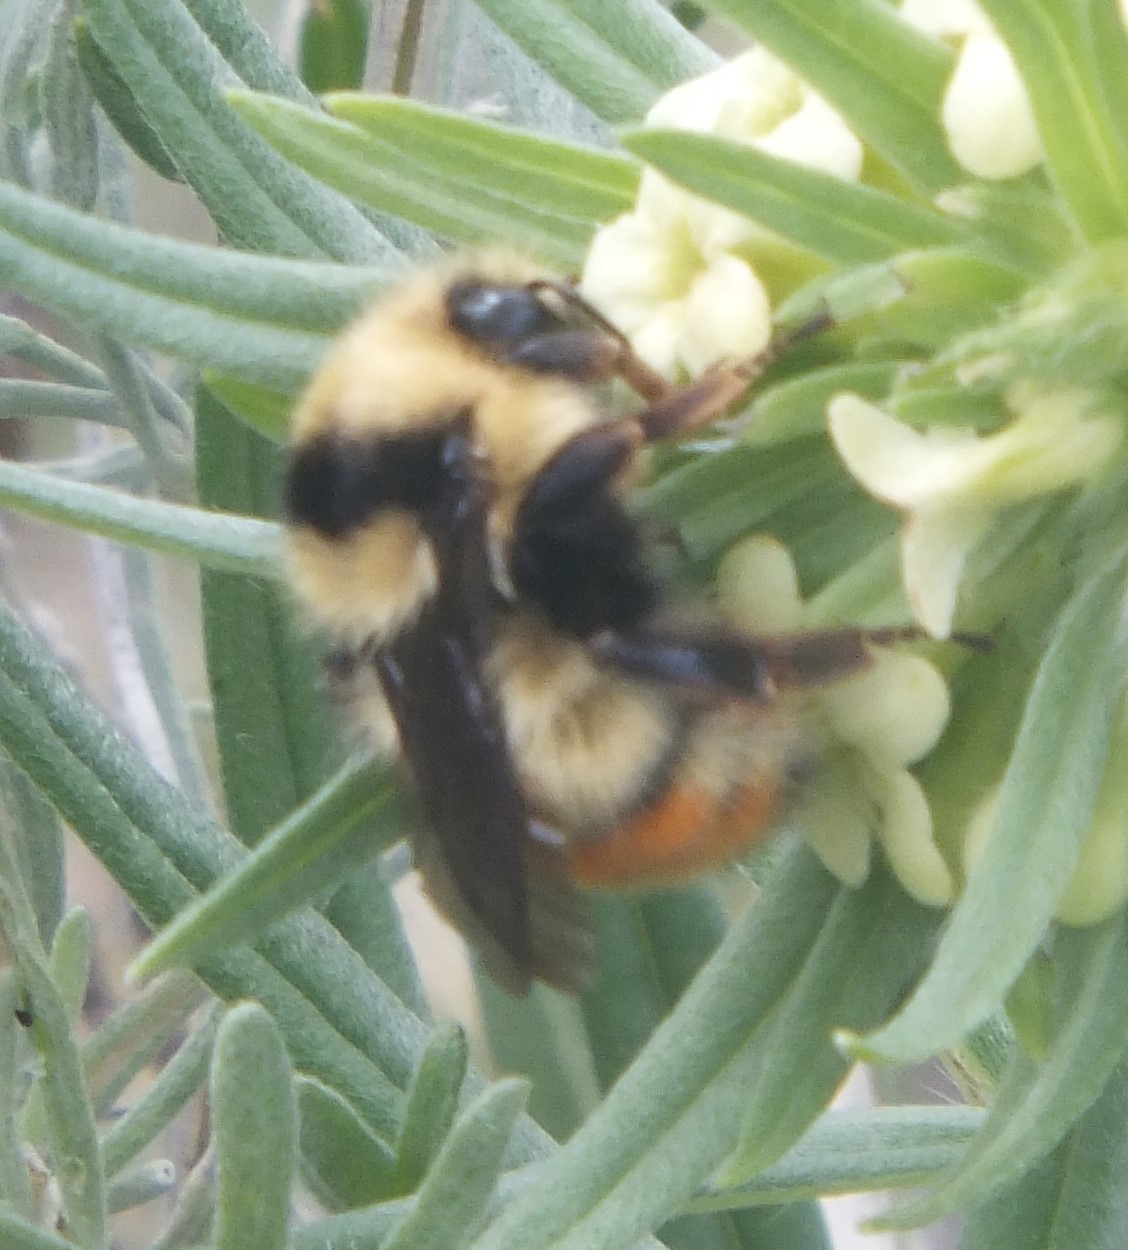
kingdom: Animalia
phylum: Arthropoda
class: Insecta
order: Hymenoptera
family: Apidae
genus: Bombus
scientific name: Bombus centralis
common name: Central bumble bee
